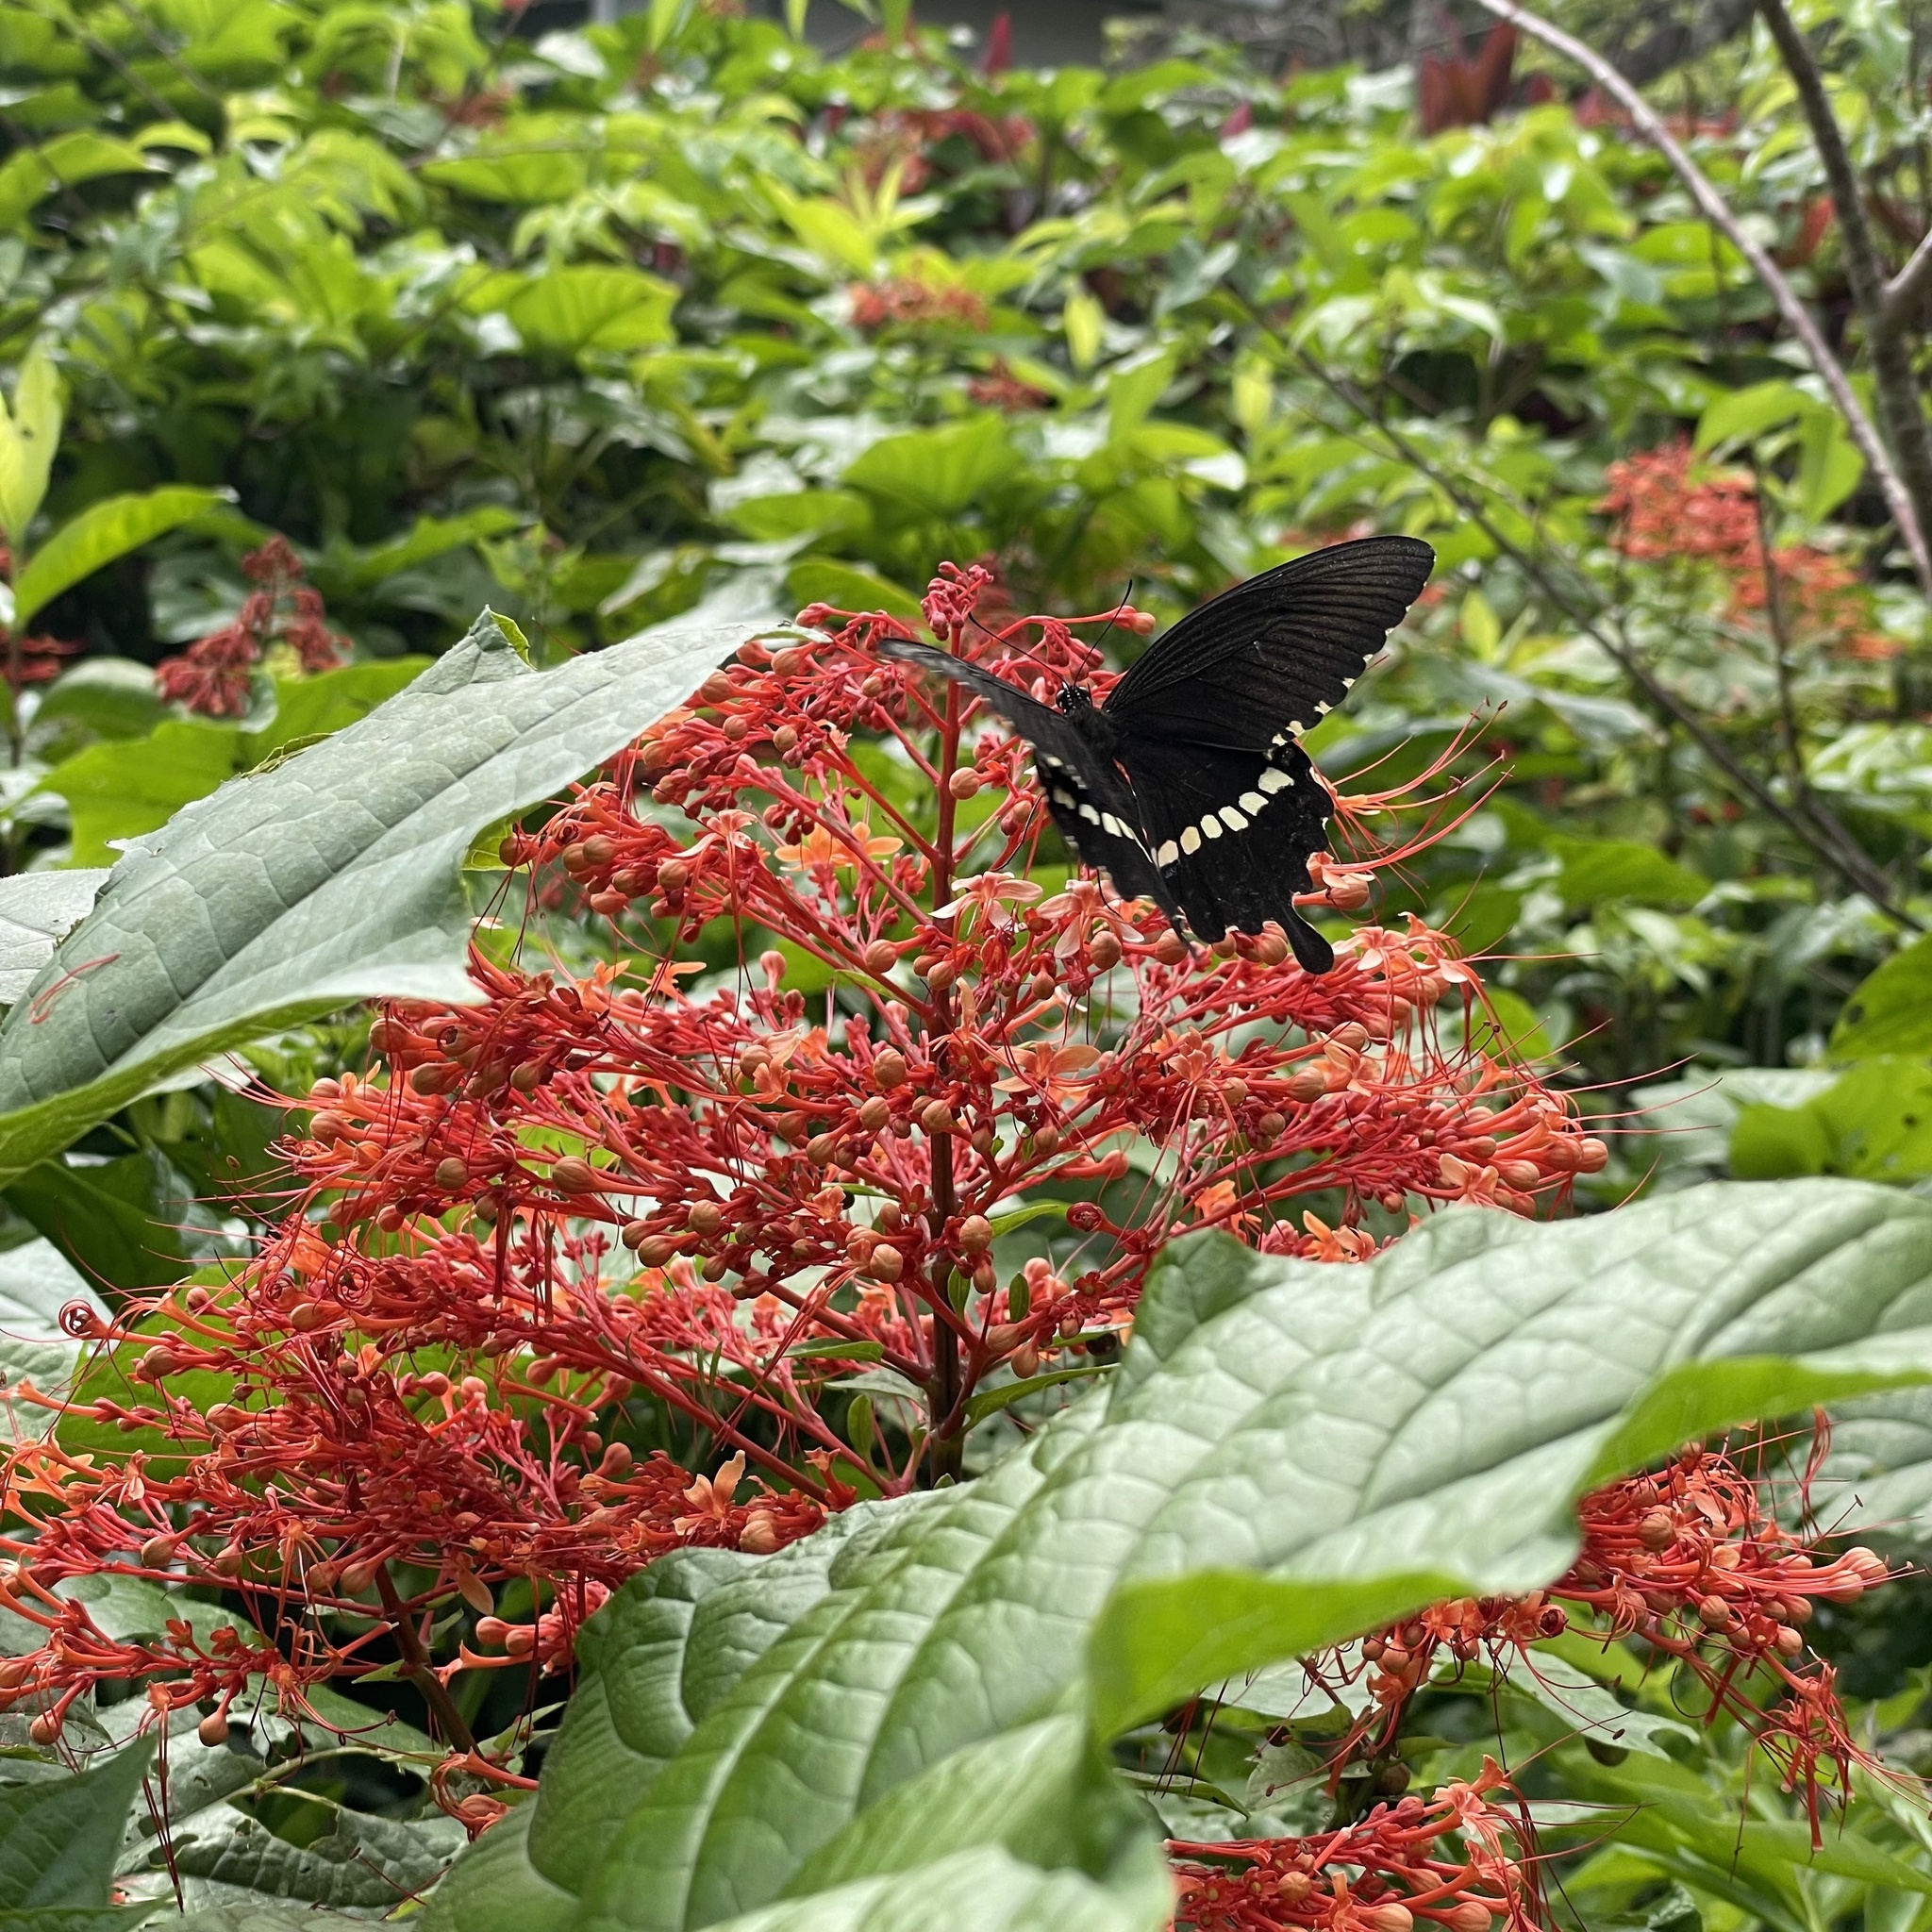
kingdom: Animalia
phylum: Arthropoda
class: Insecta
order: Lepidoptera
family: Papilionidae
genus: Papilio
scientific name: Papilio polytes
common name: Common mormon
